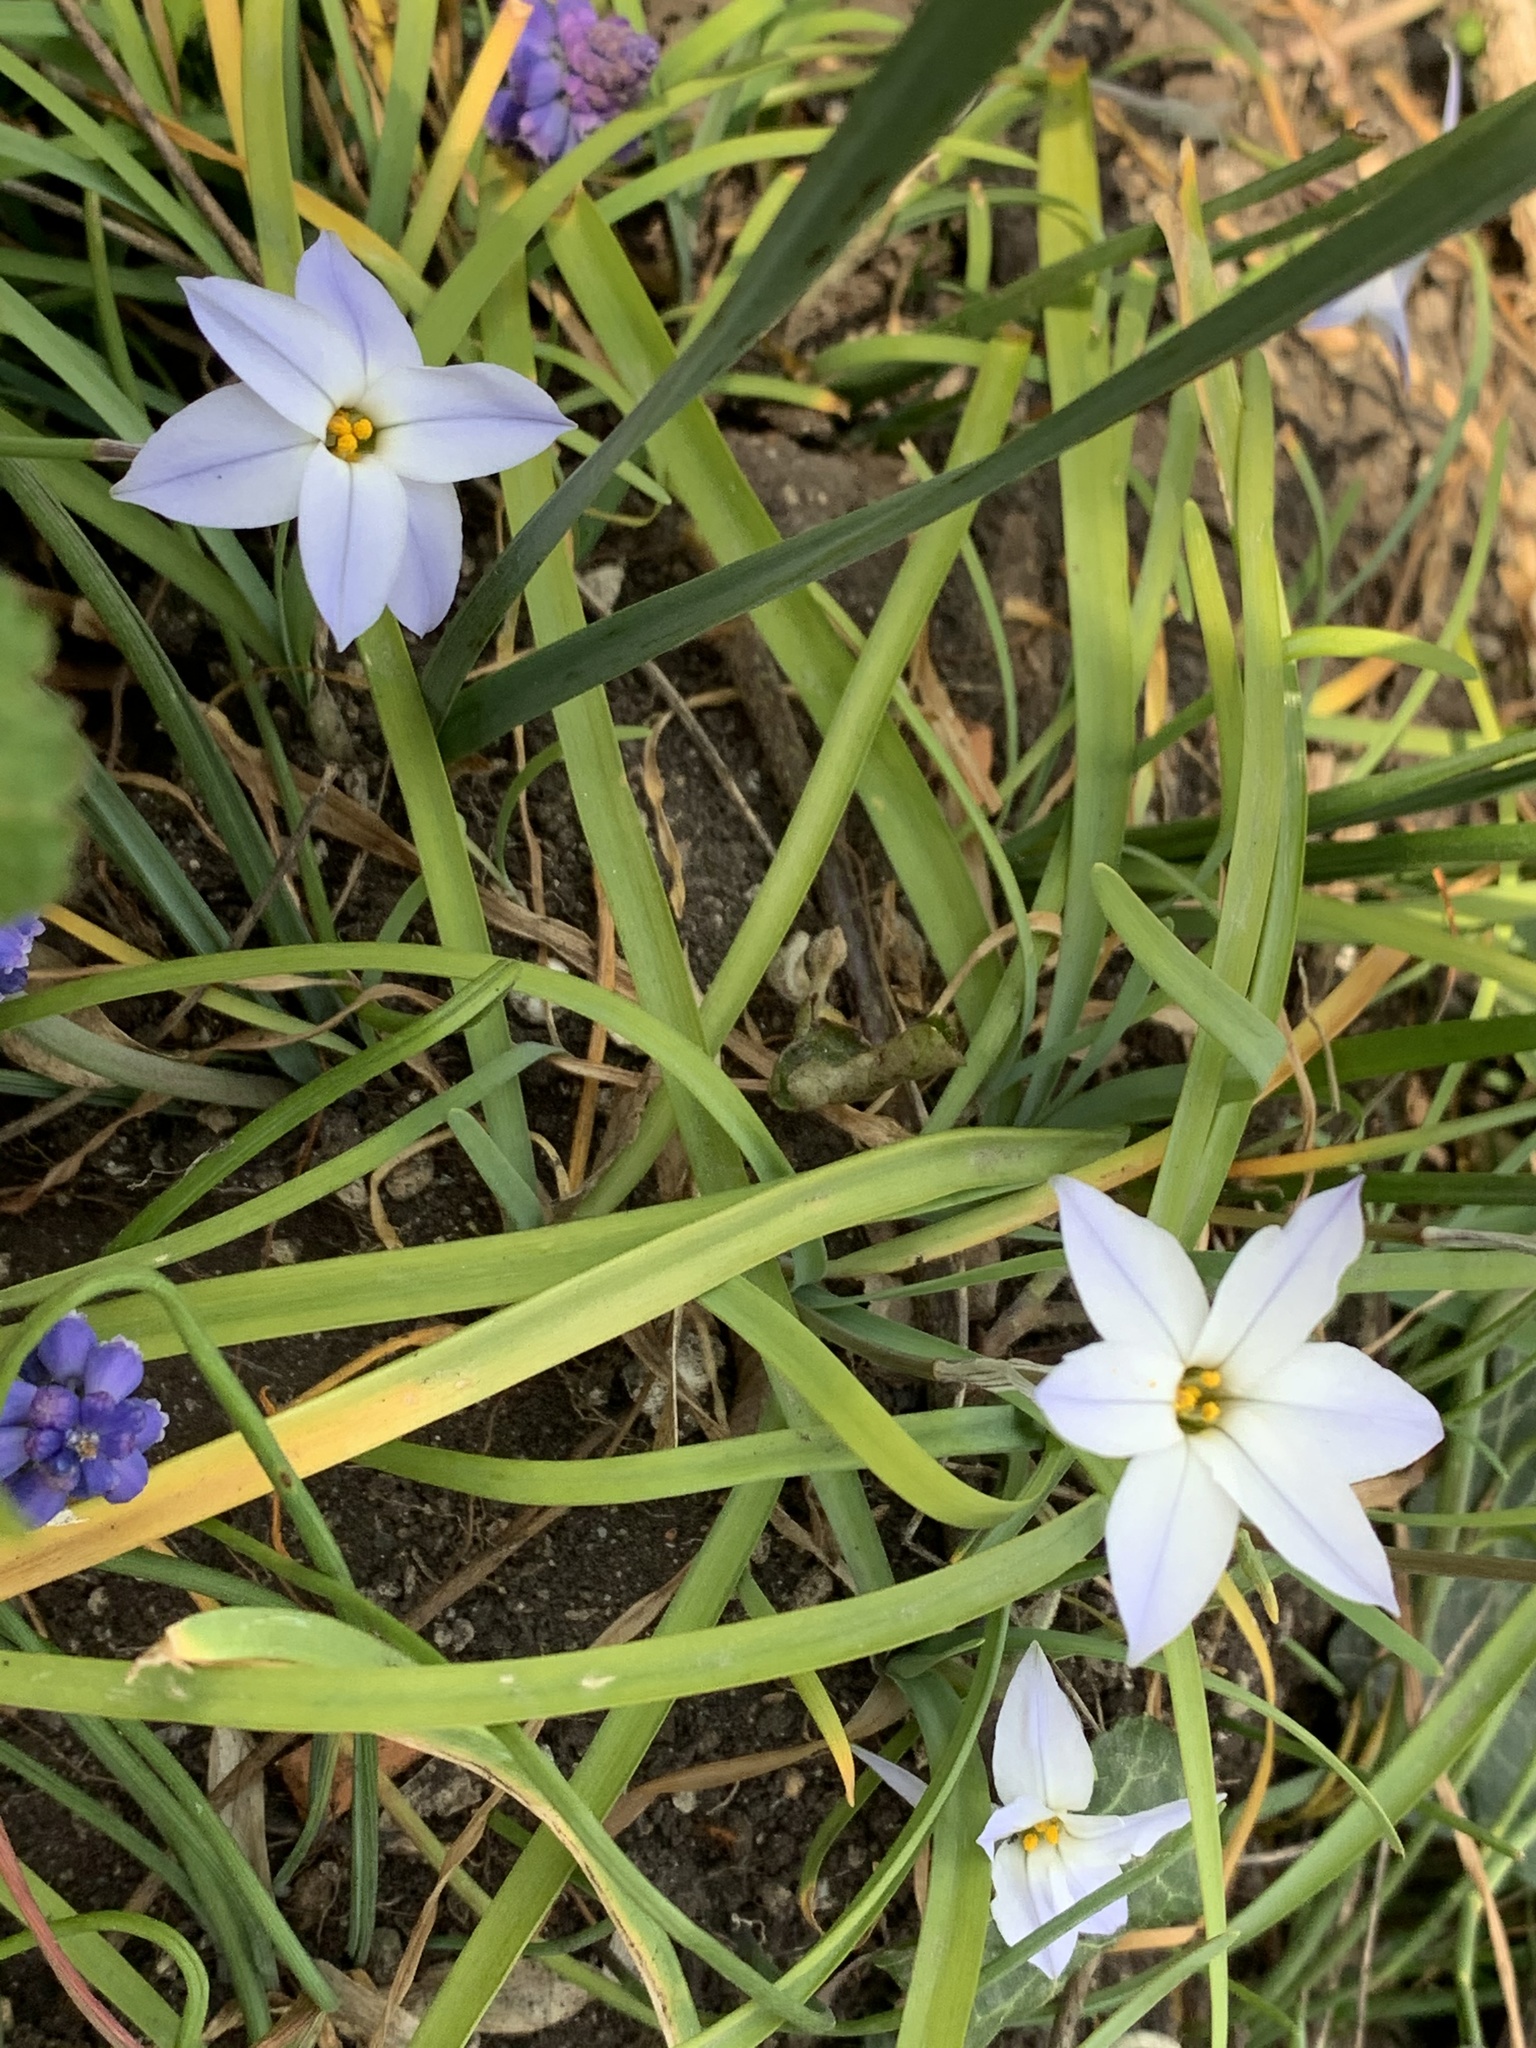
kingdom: Plantae
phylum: Tracheophyta
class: Liliopsida
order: Asparagales
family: Amaryllidaceae
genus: Ipheion
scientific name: Ipheion uniflorum
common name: Spring starflower
